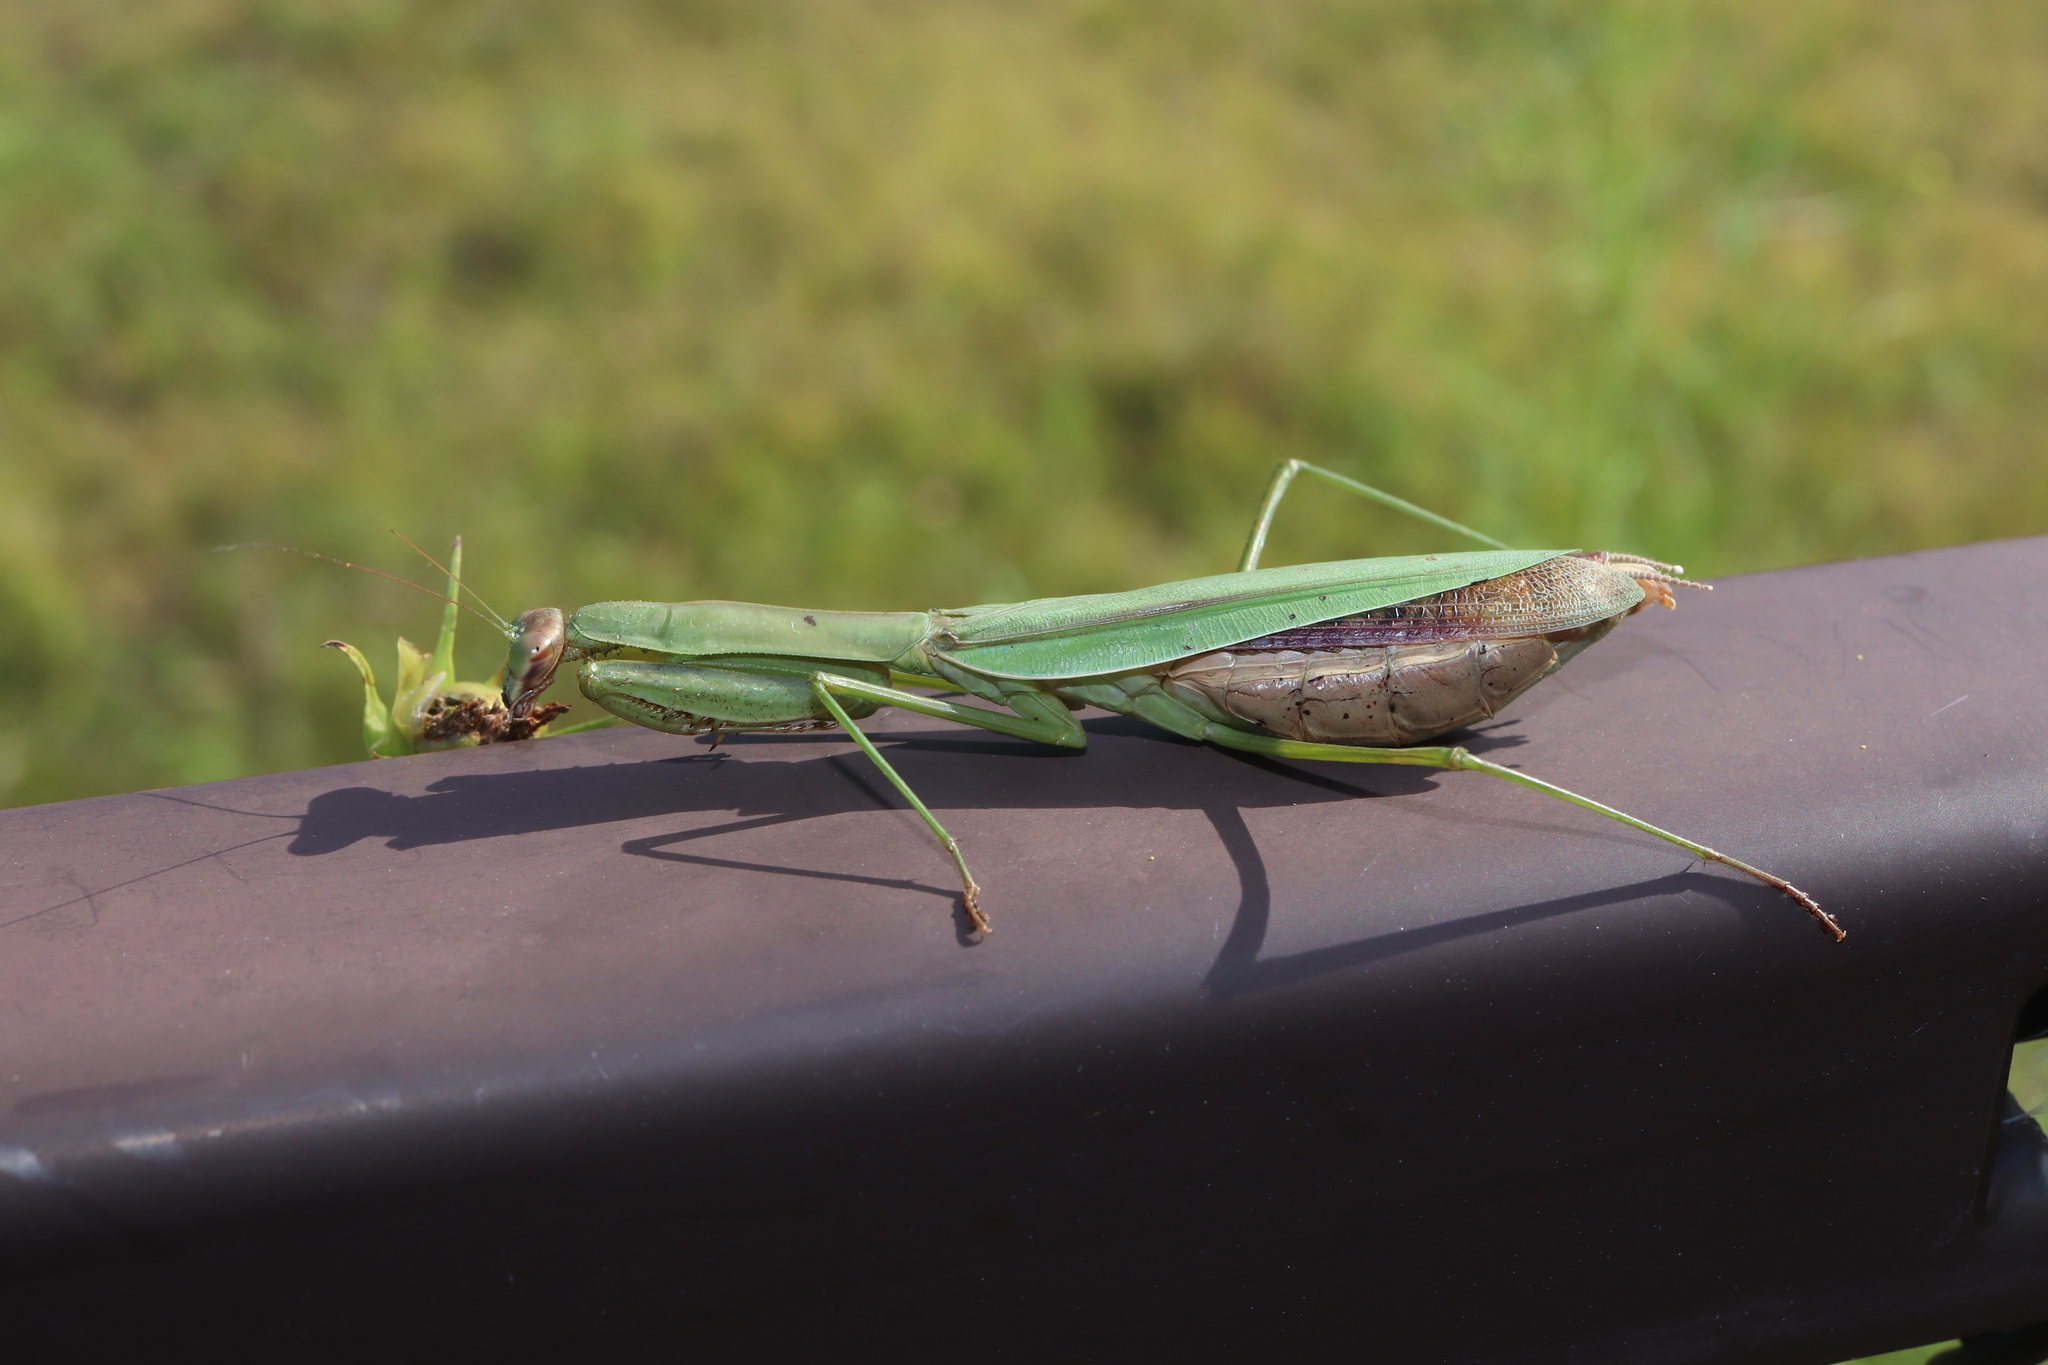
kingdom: Animalia
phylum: Arthropoda
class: Insecta
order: Mantodea
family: Mantidae
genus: Tenodera
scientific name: Tenodera sinensis
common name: Chinese mantis
